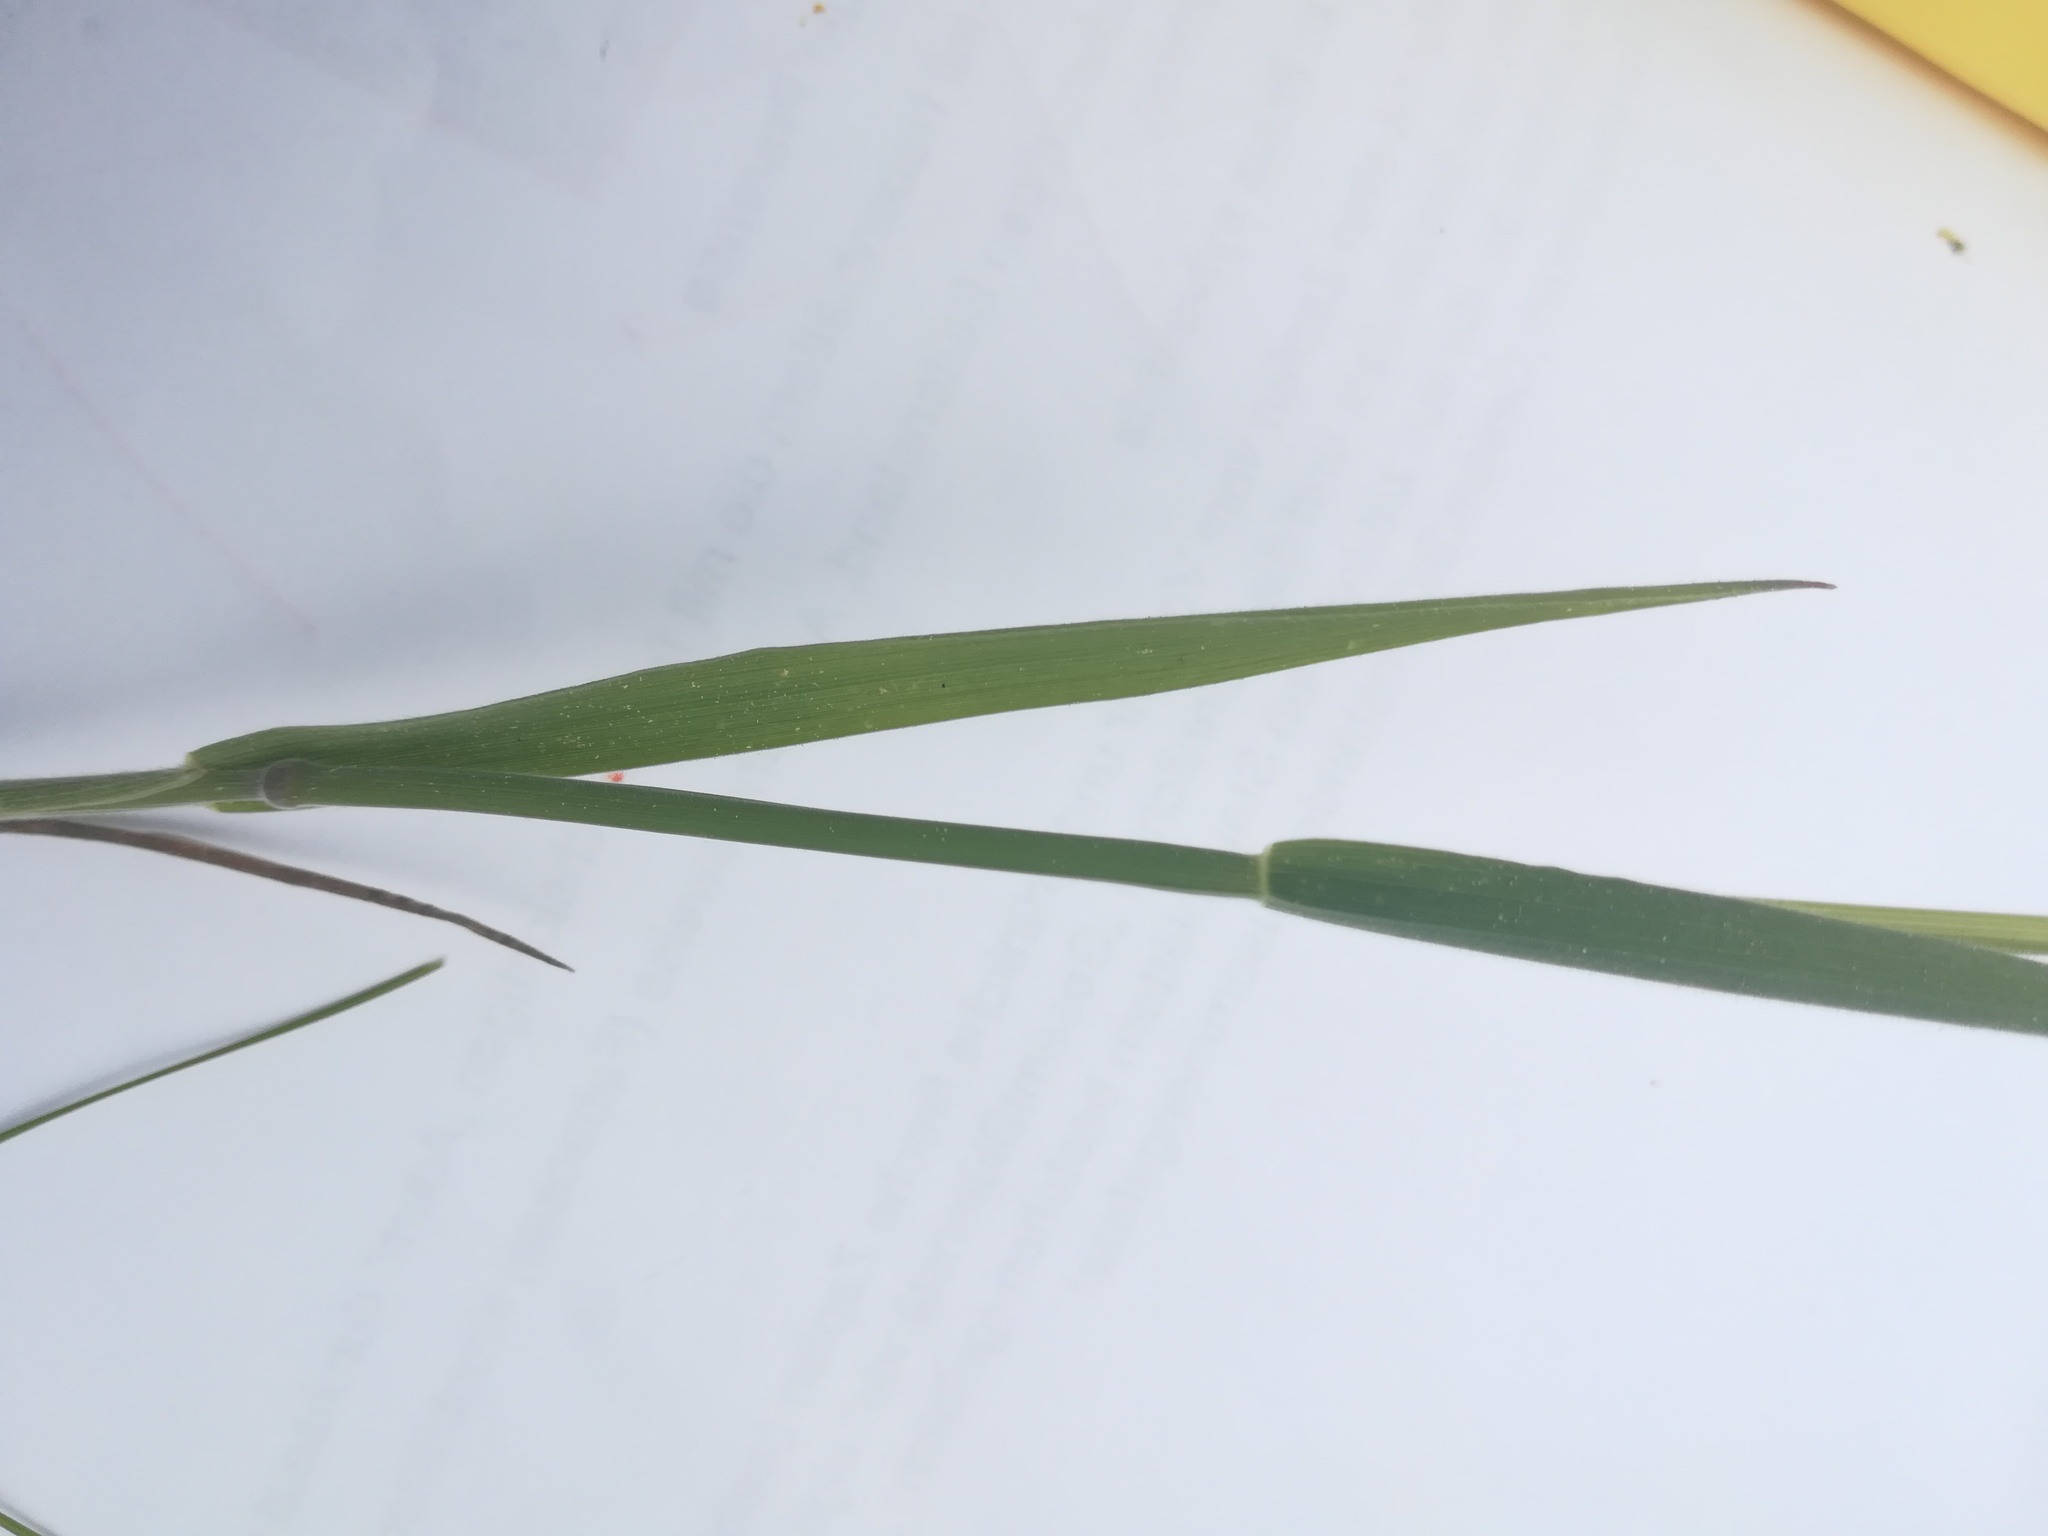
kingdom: Plantae
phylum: Tracheophyta
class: Liliopsida
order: Poales
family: Poaceae
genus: Holcus
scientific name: Holcus lanatus
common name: Yorkshire-fog
